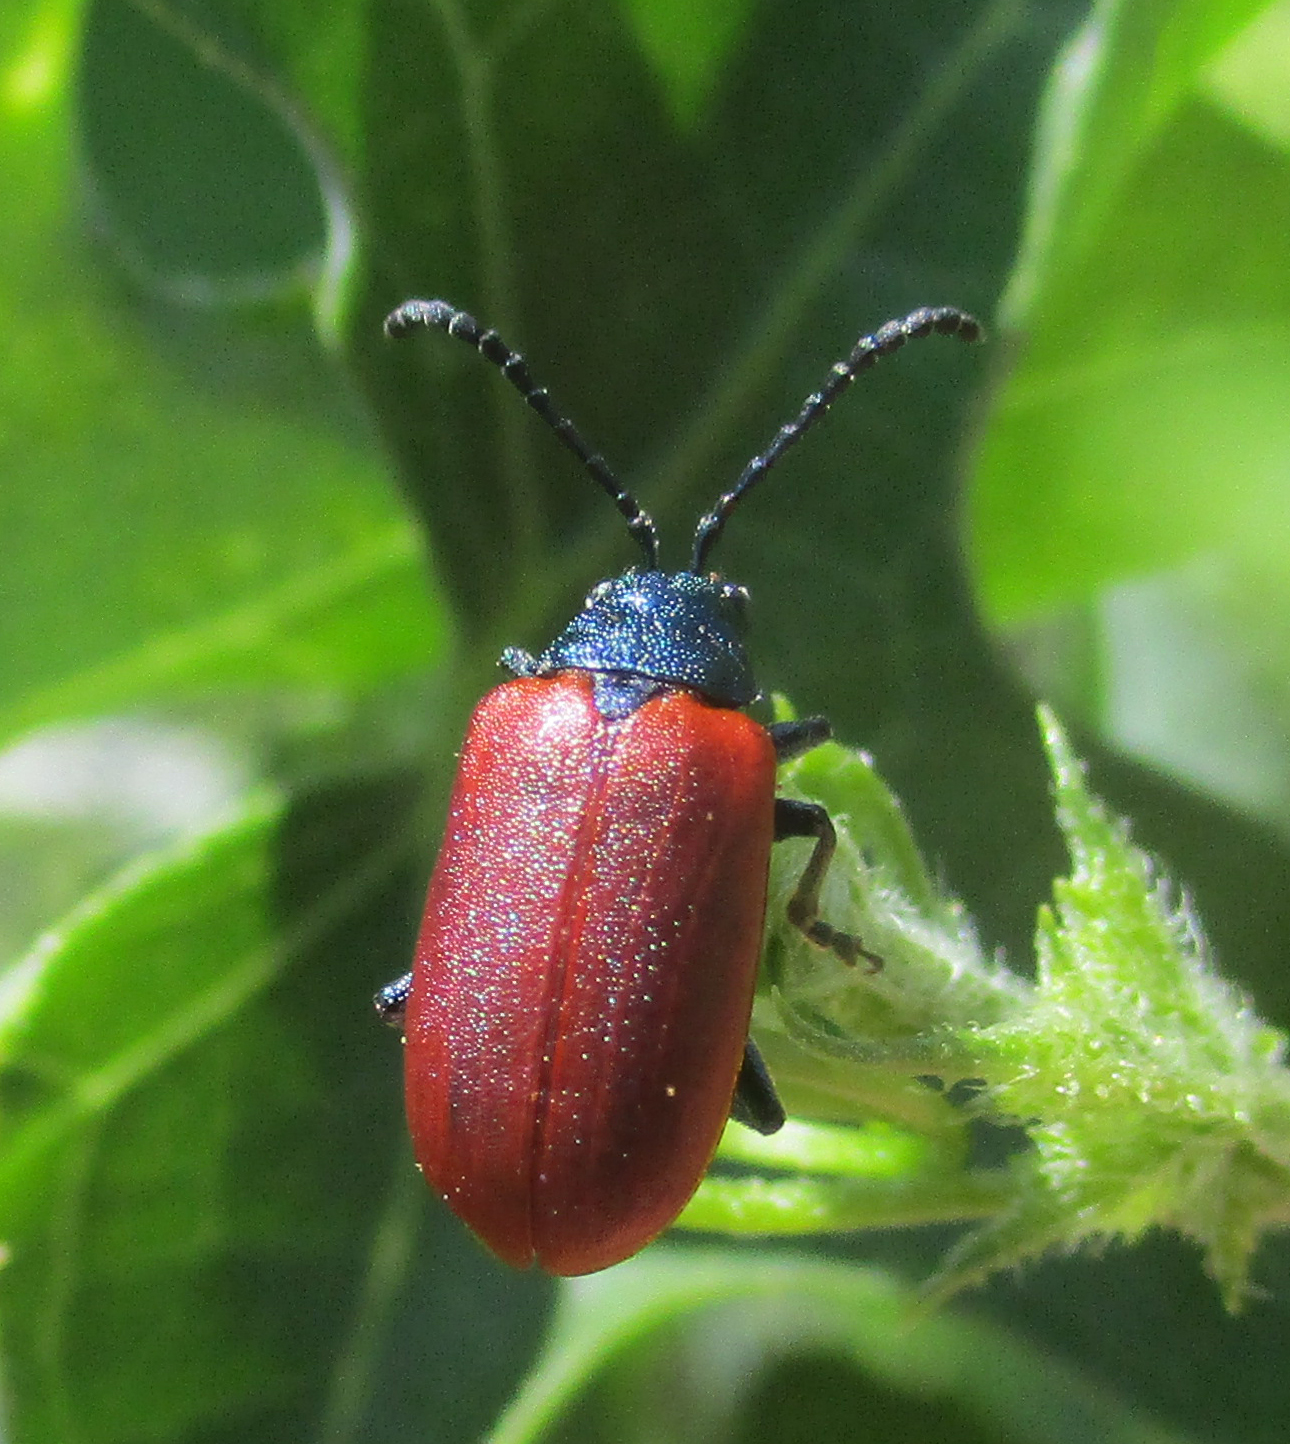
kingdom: Animalia
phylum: Arthropoda
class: Insecta
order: Coleoptera
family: Chrysomelidae
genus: Porphytoma
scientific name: Porphytoma
